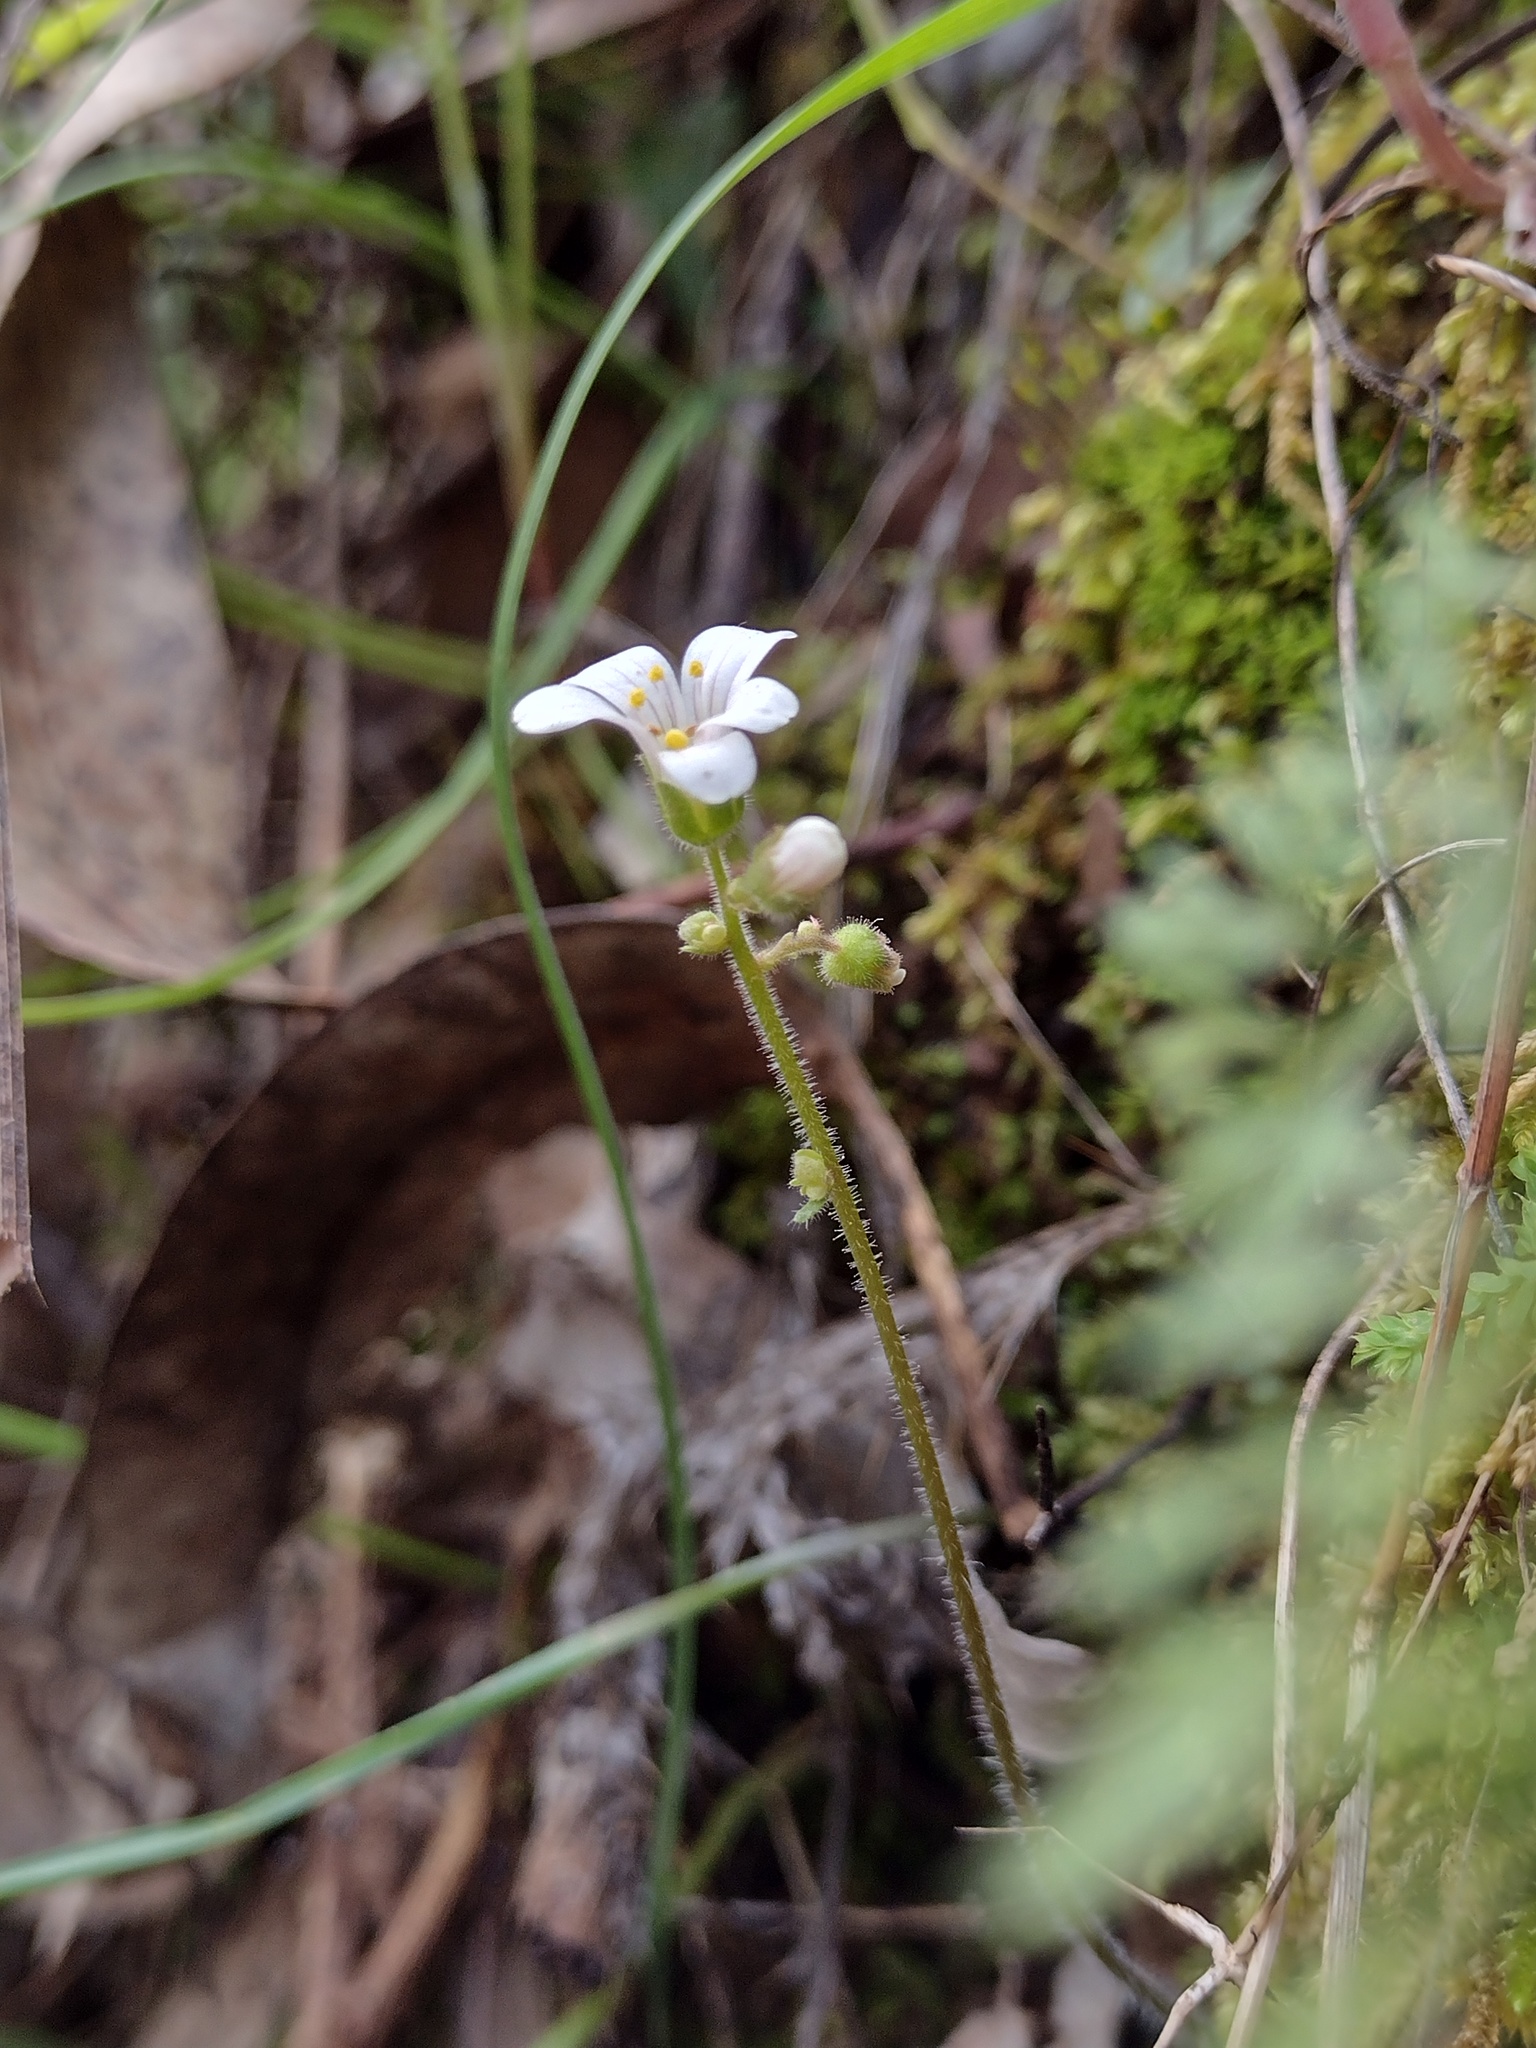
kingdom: Plantae
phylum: Tracheophyta
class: Magnoliopsida
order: Saxifragales
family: Saxifragaceae
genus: Saxifraga
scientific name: Saxifraga granulata
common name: Meadow saxifrage
